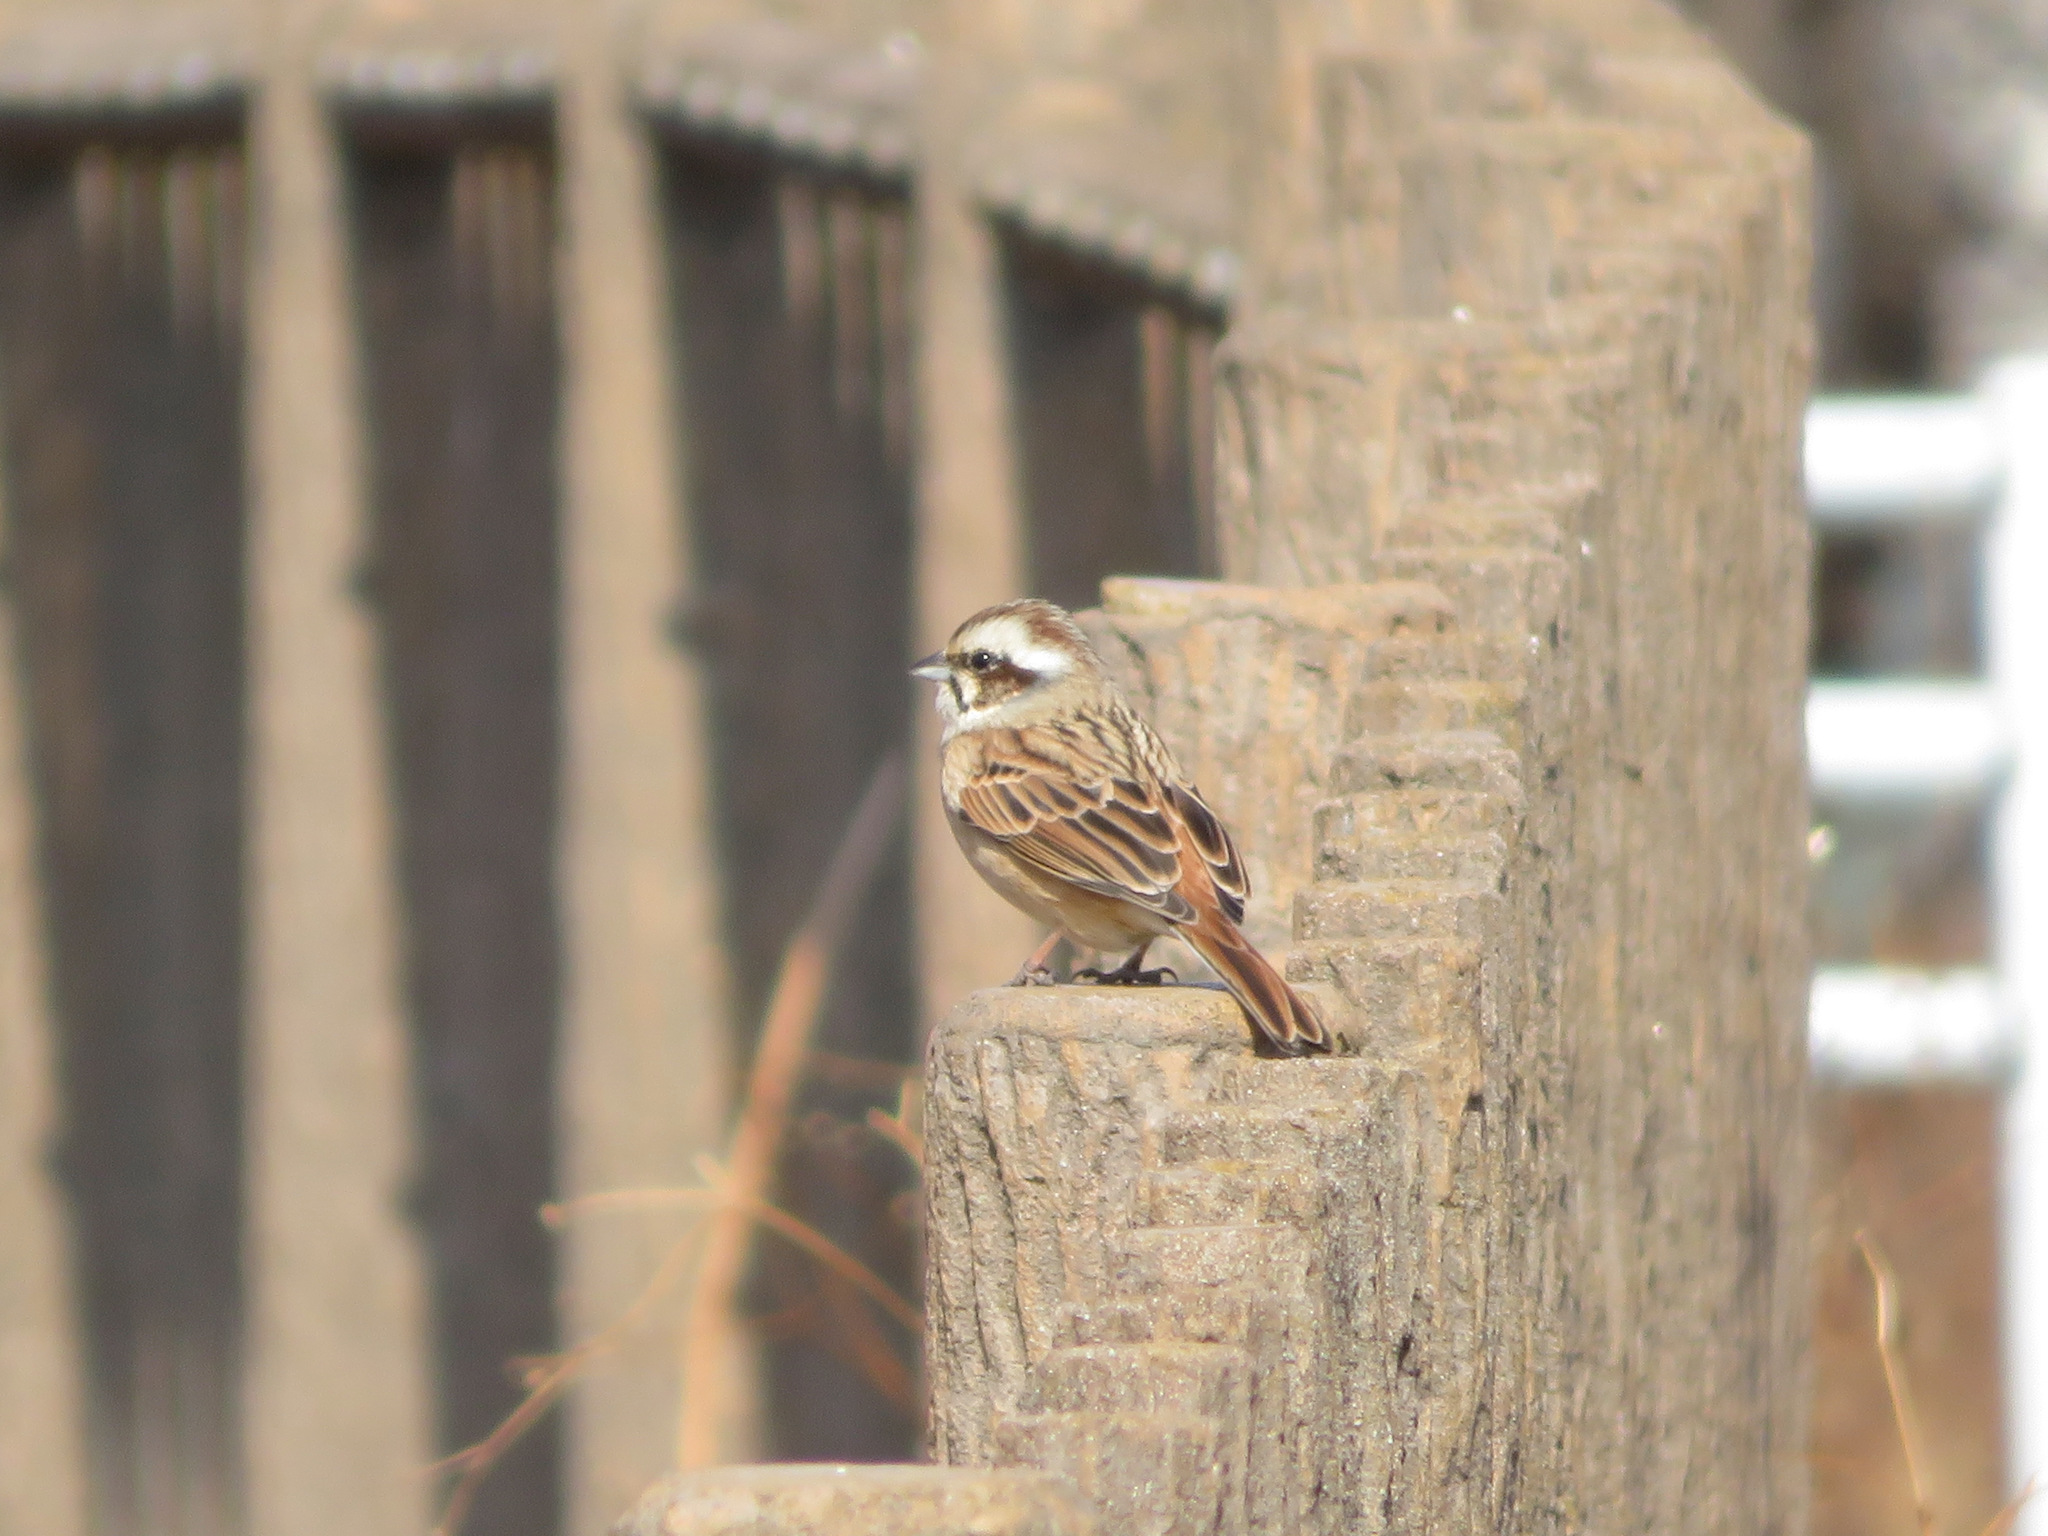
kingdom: Animalia
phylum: Chordata
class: Aves
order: Passeriformes
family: Emberizidae
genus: Emberiza
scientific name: Emberiza cioides
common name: Meadow bunting
